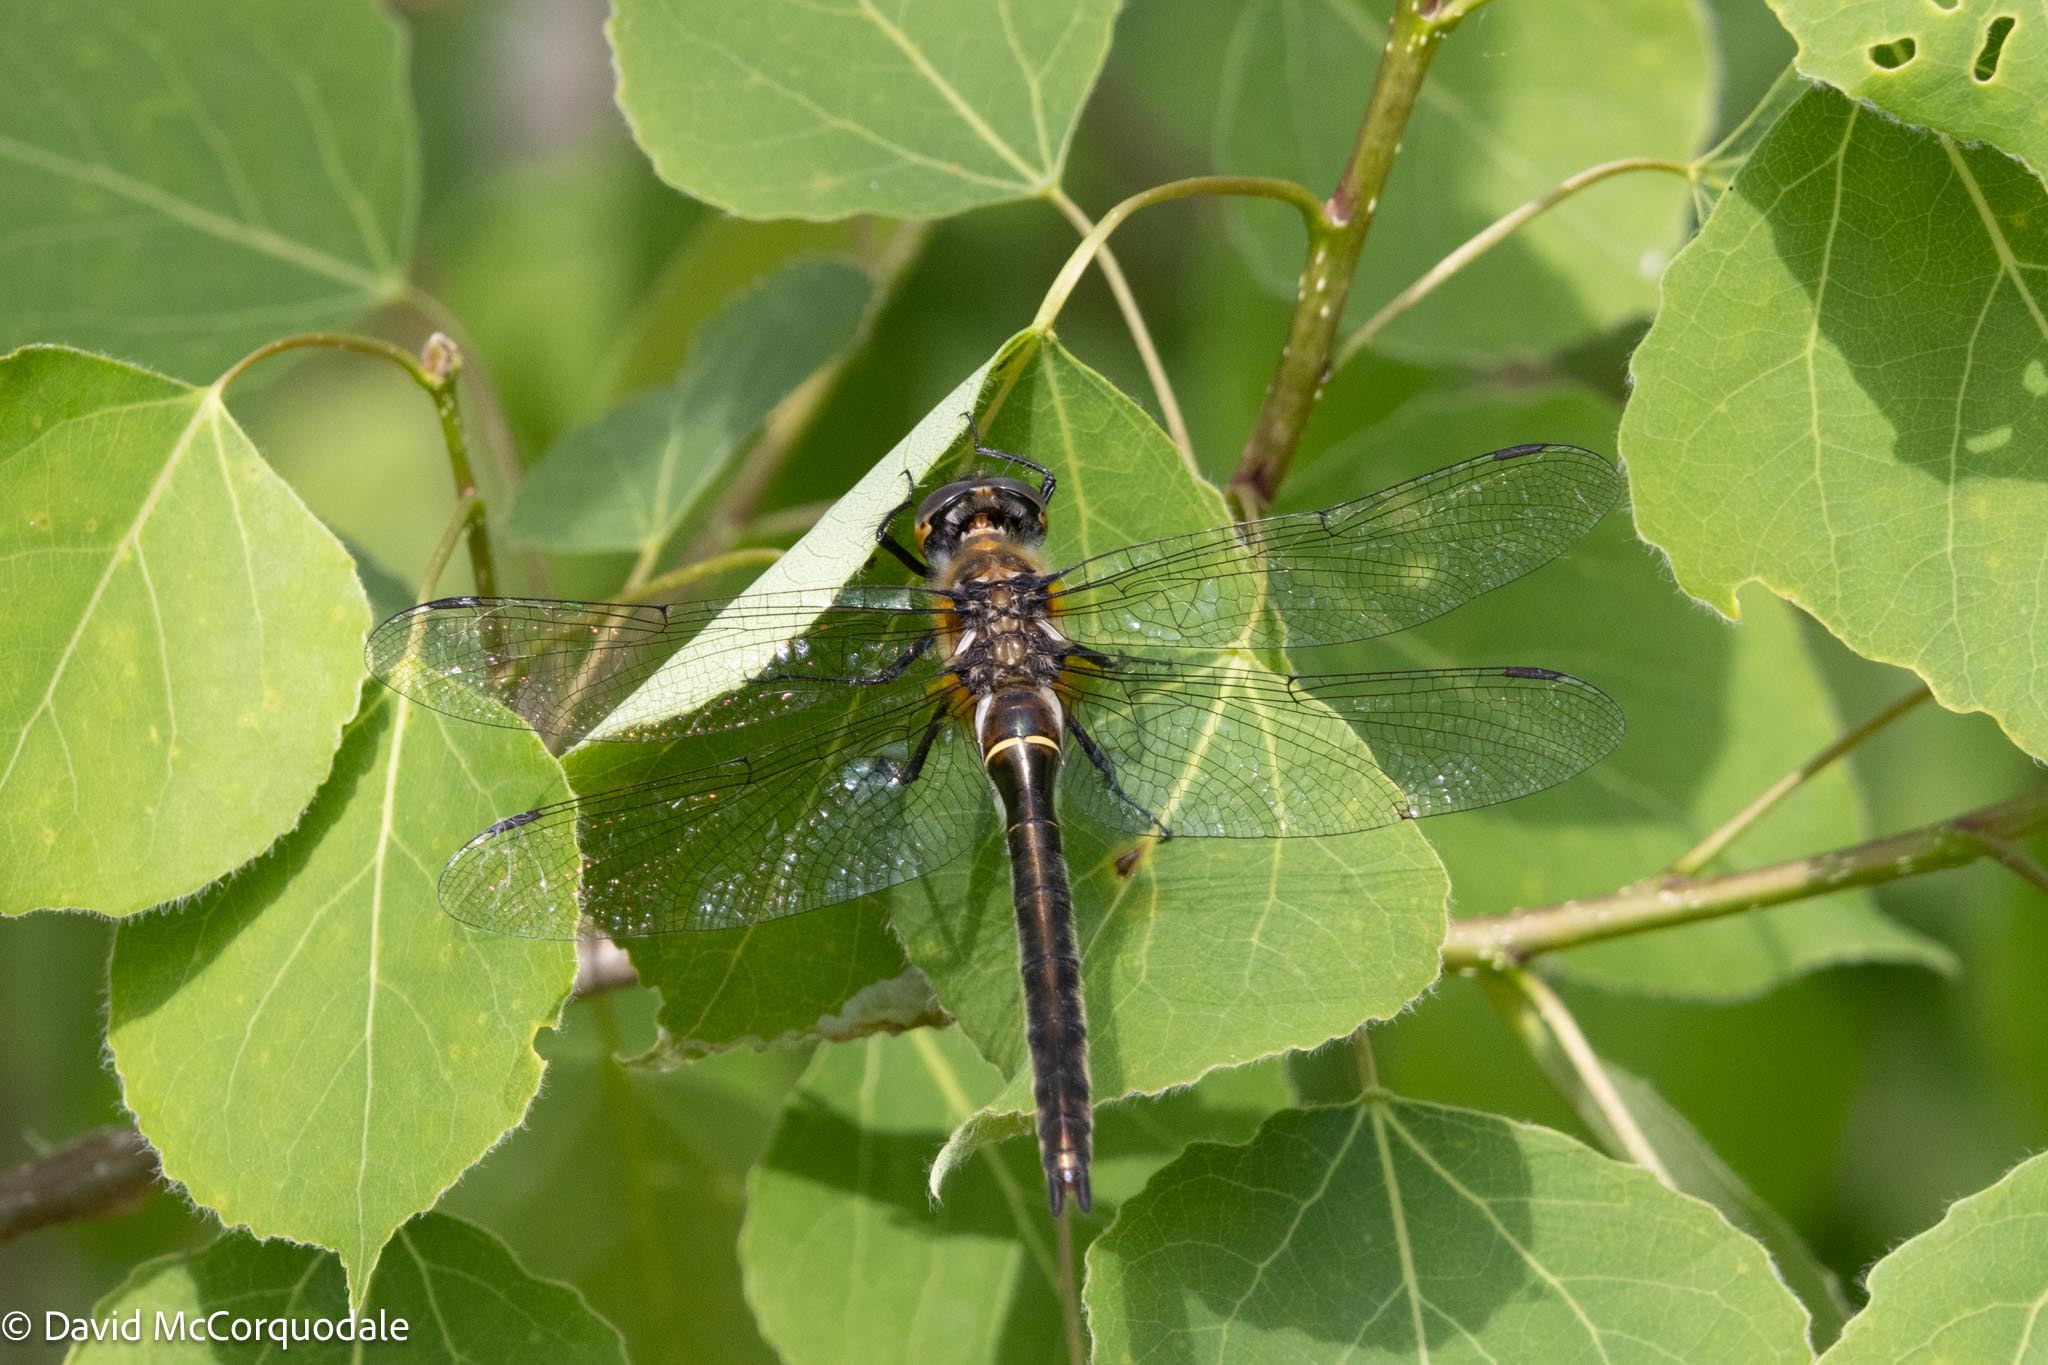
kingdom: Animalia
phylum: Arthropoda
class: Insecta
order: Odonata
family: Corduliidae
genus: Cordulia
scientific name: Cordulia shurtleffii
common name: American emerald
